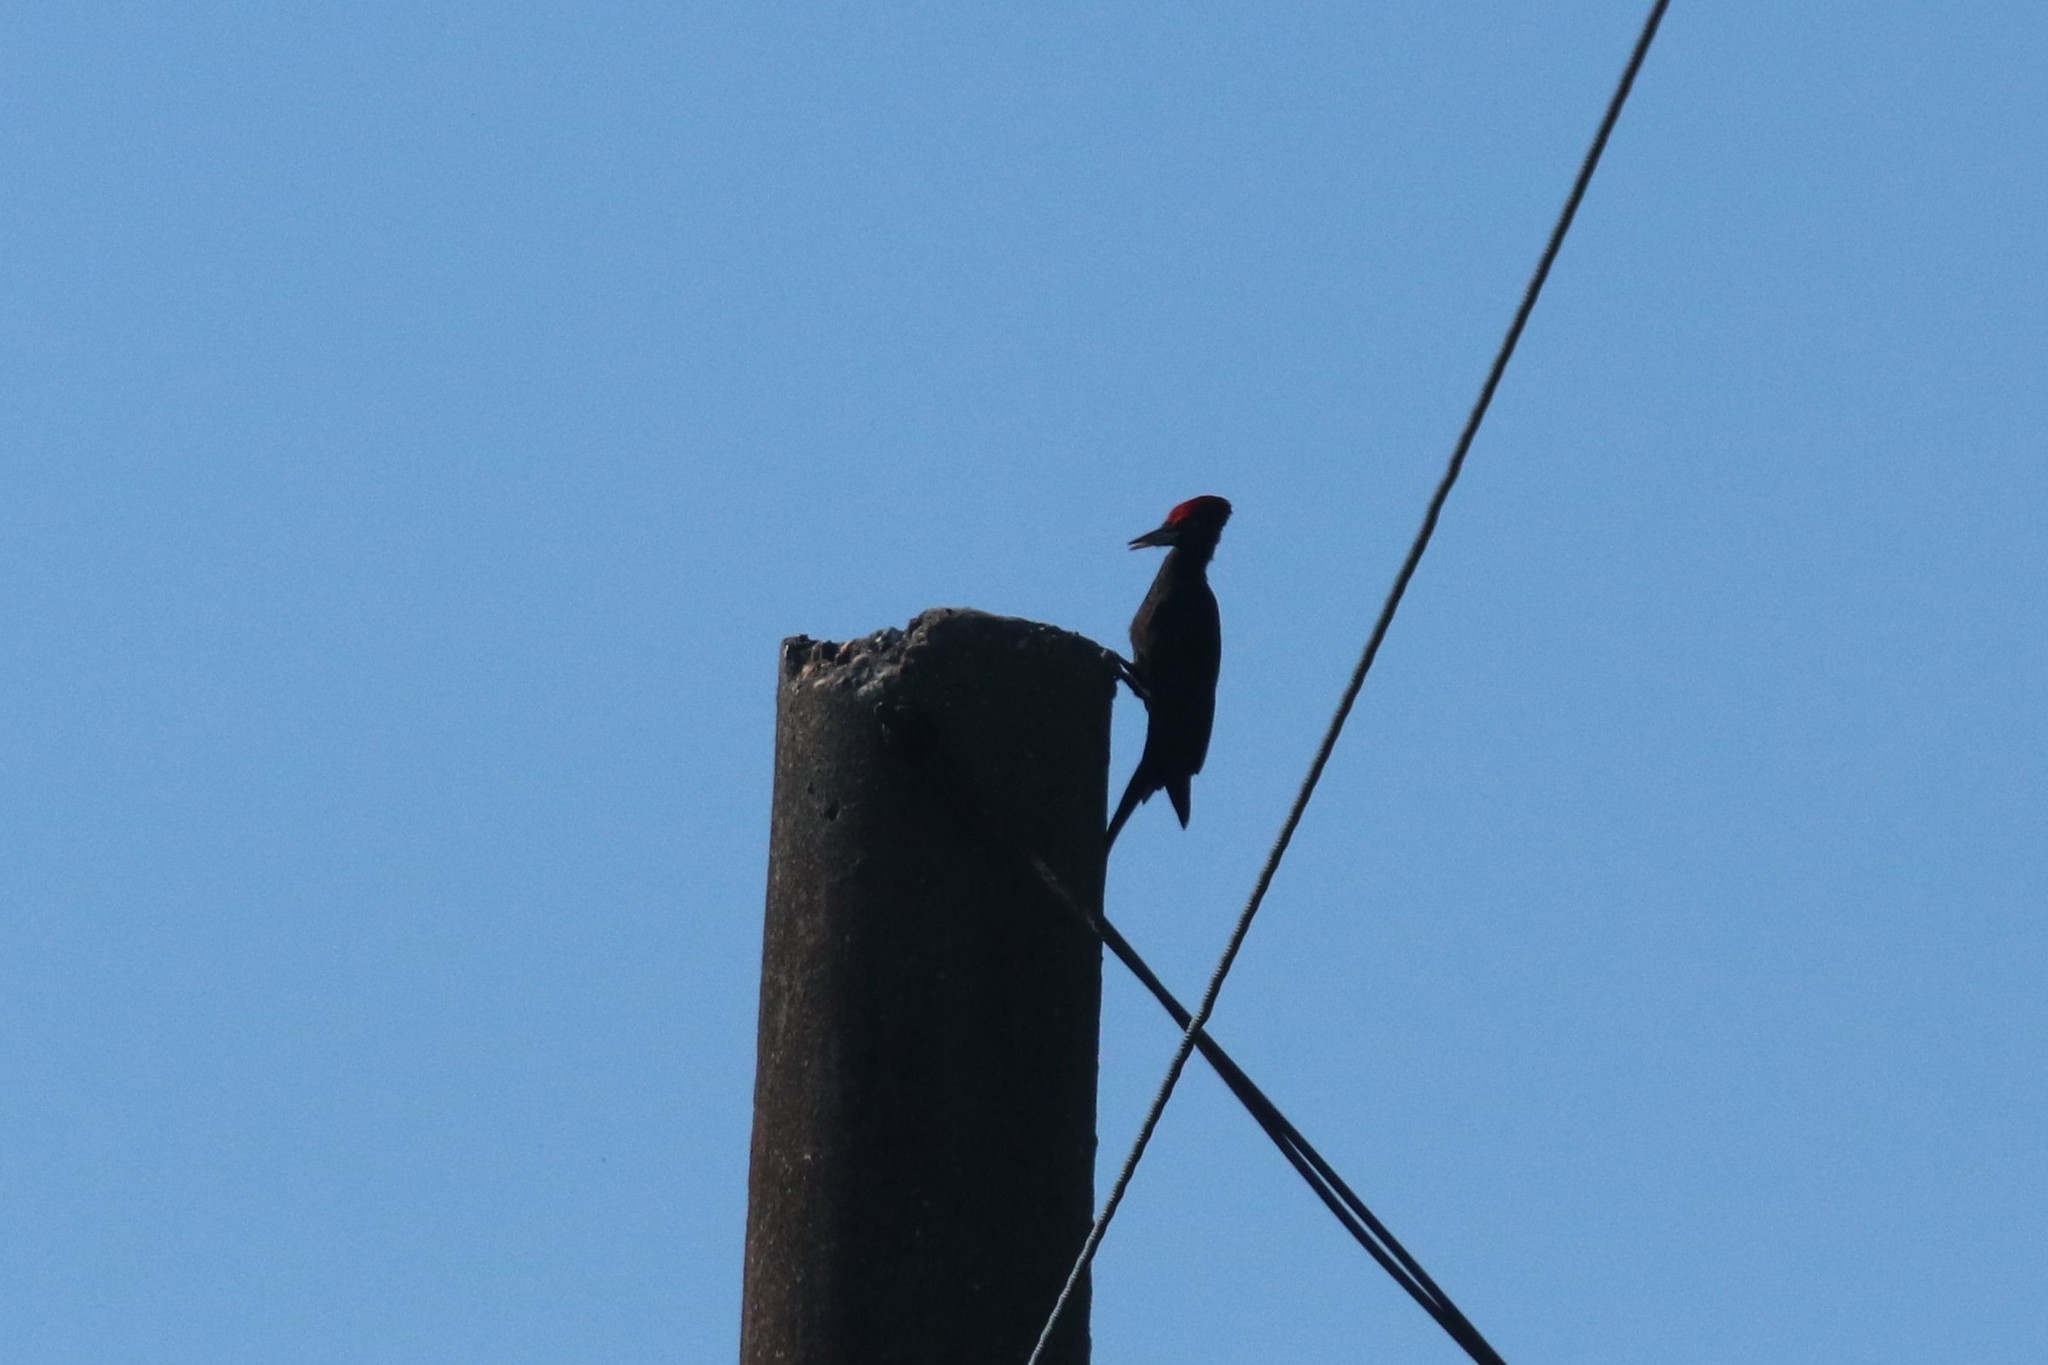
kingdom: Animalia
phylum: Chordata
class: Aves
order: Piciformes
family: Picidae
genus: Dryocopus
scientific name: Dryocopus martius
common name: Black woodpecker
